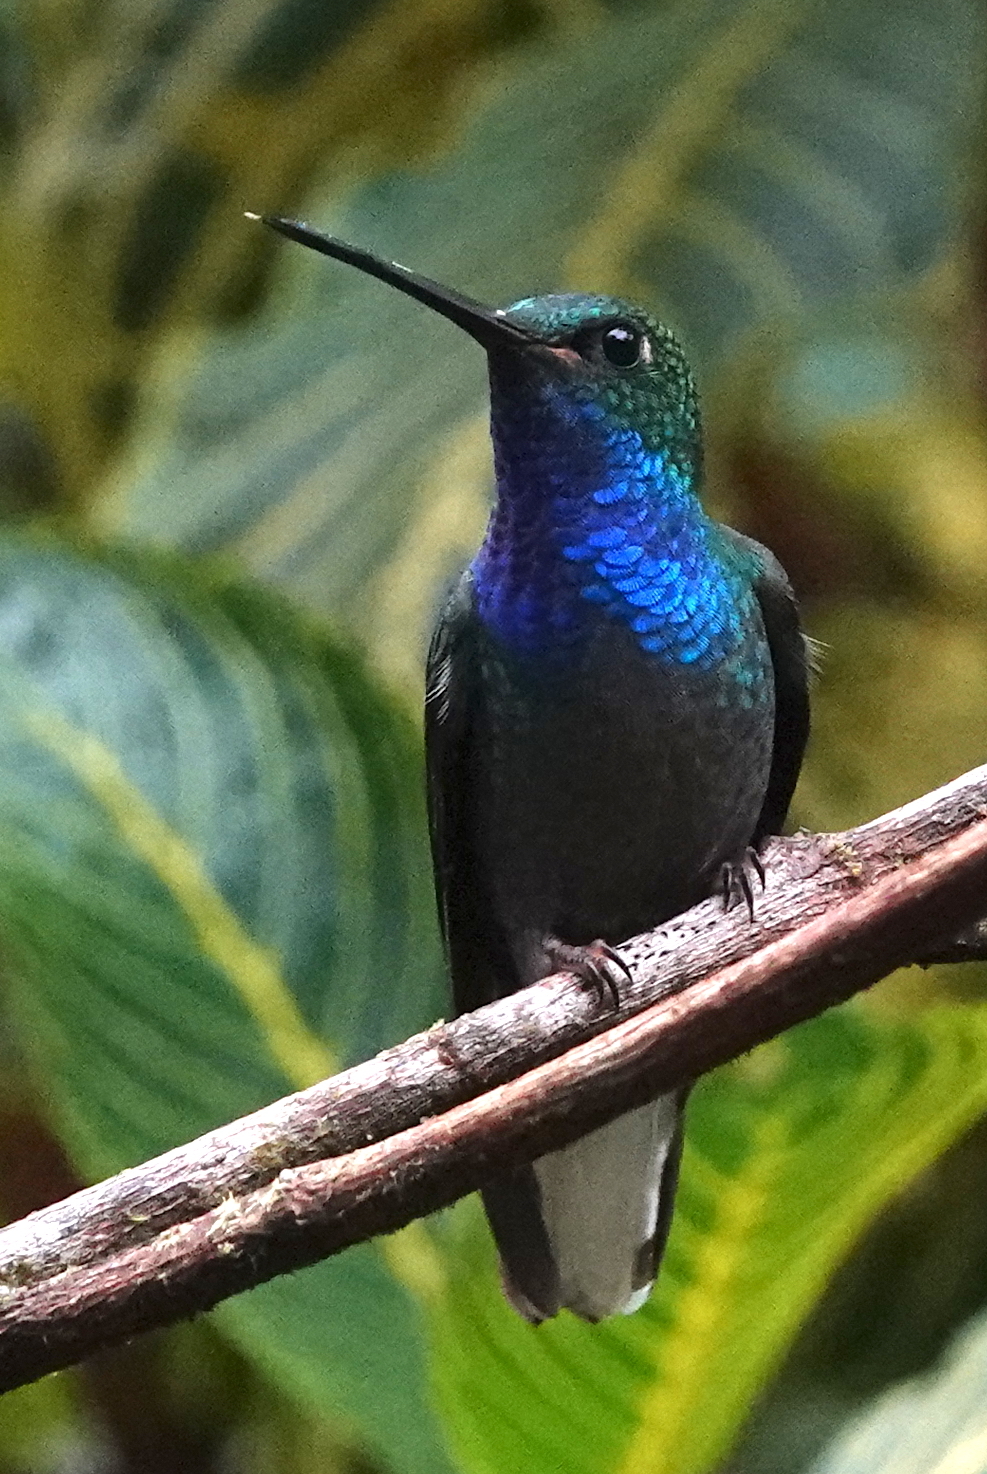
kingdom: Animalia
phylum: Chordata
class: Aves
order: Apodiformes
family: Trochilidae
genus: Urochroa
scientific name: Urochroa leucura
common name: Green-backed hillstar
